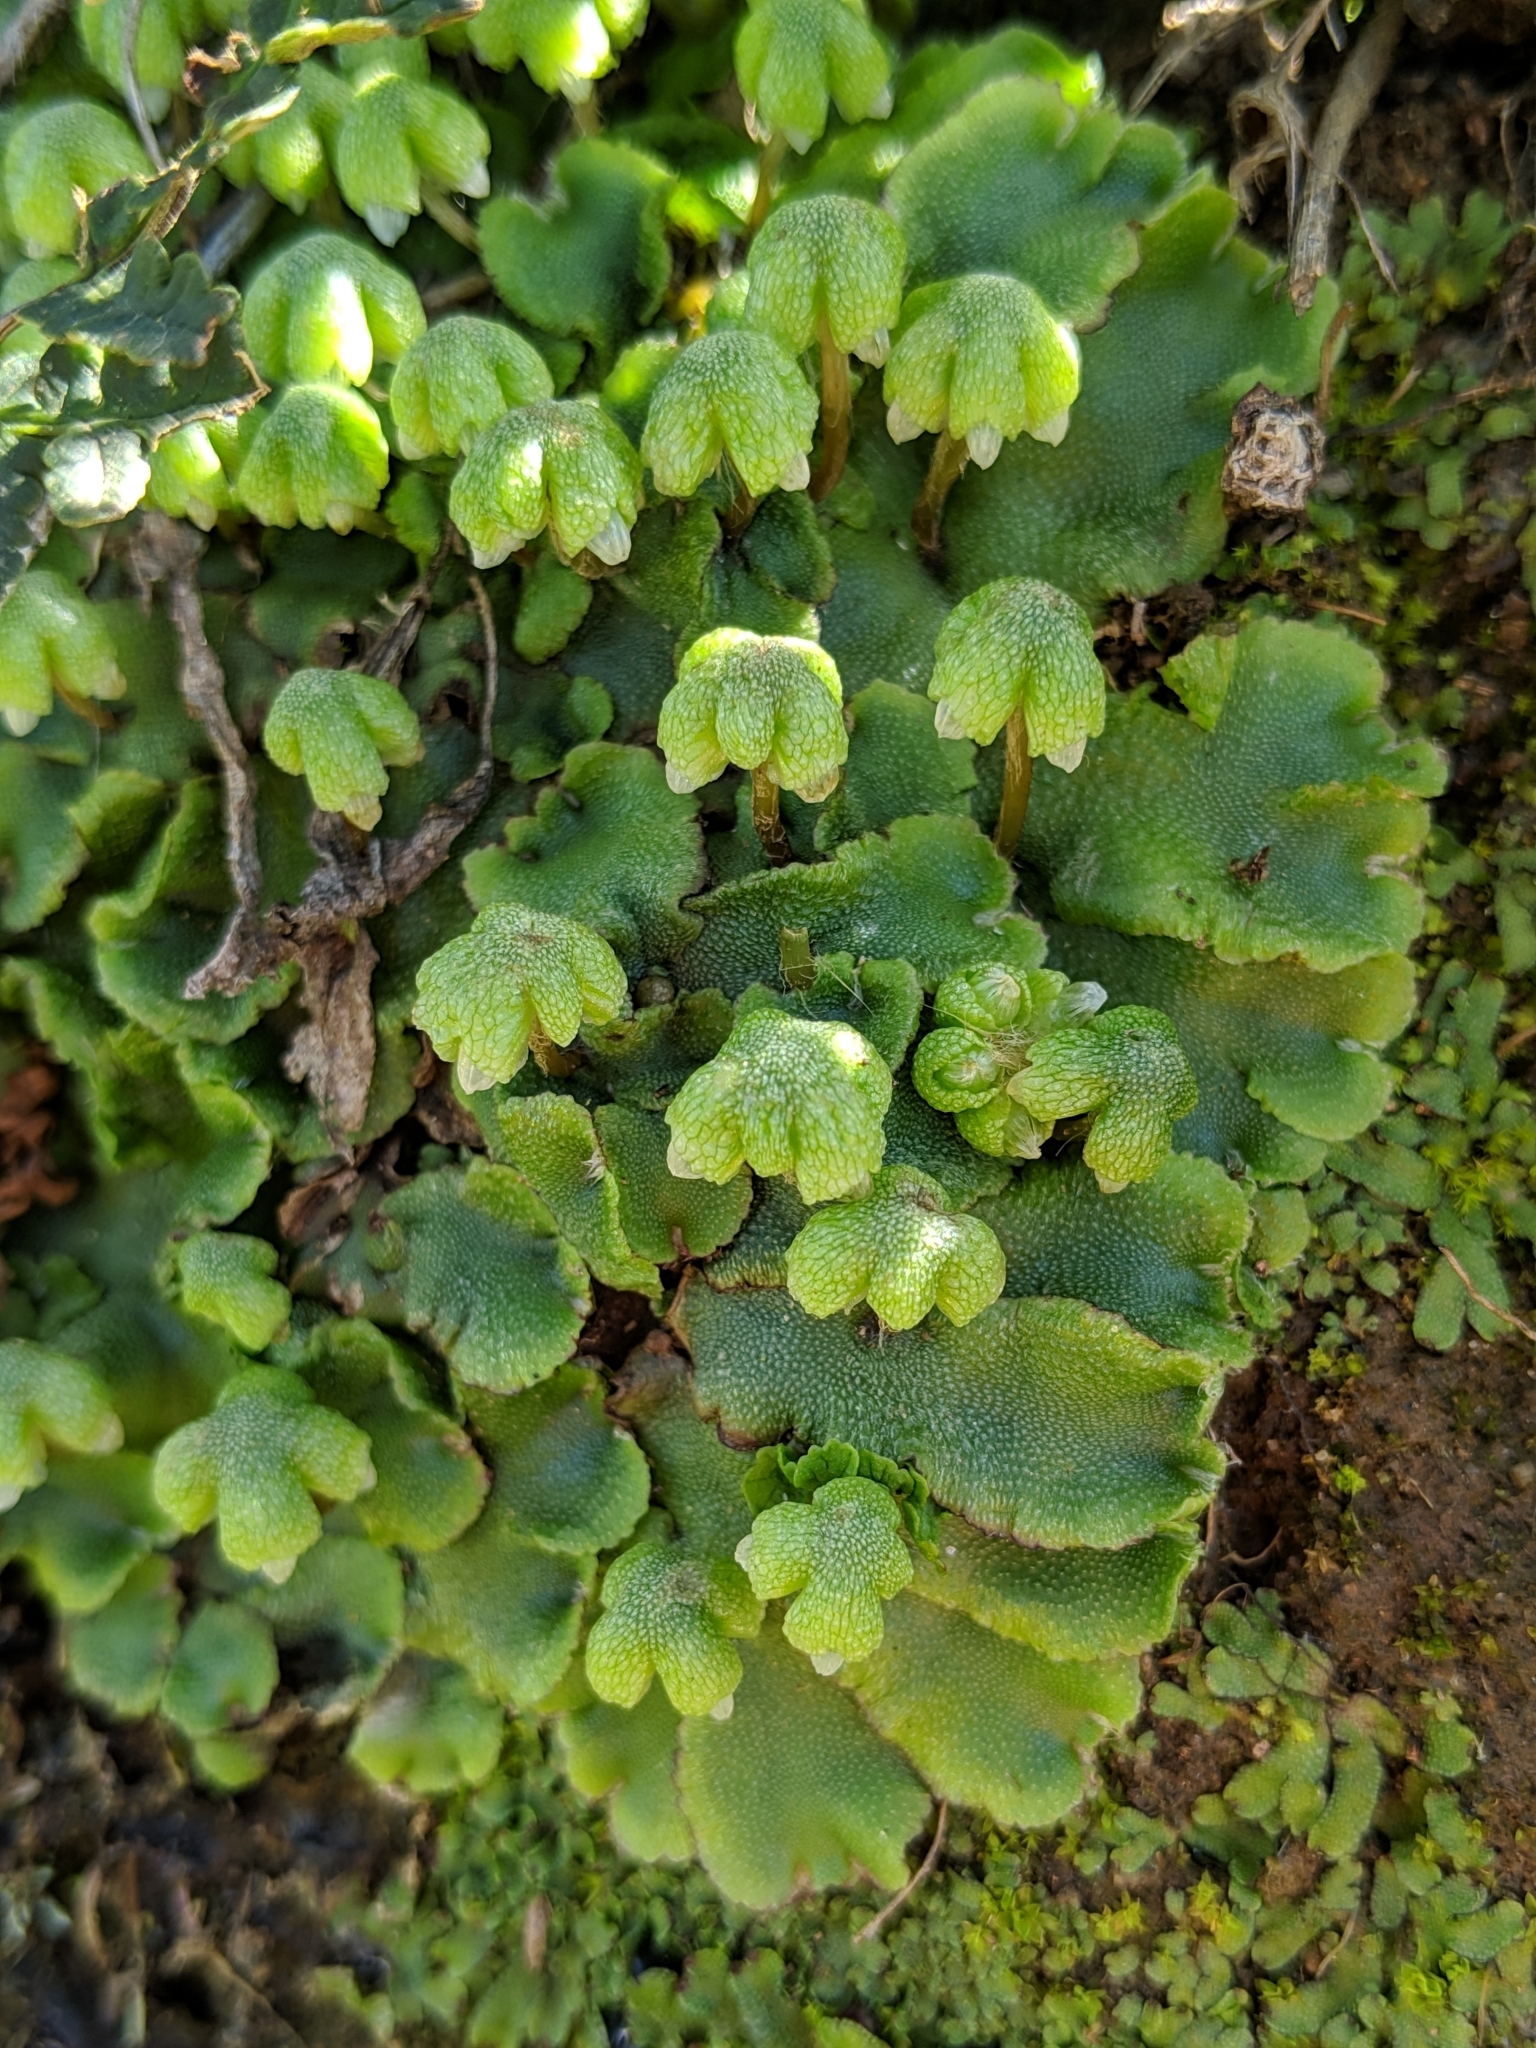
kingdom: Plantae
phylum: Marchantiophyta
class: Marchantiopsida
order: Marchantiales
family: Aytoniaceae
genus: Asterella
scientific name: Asterella californica
